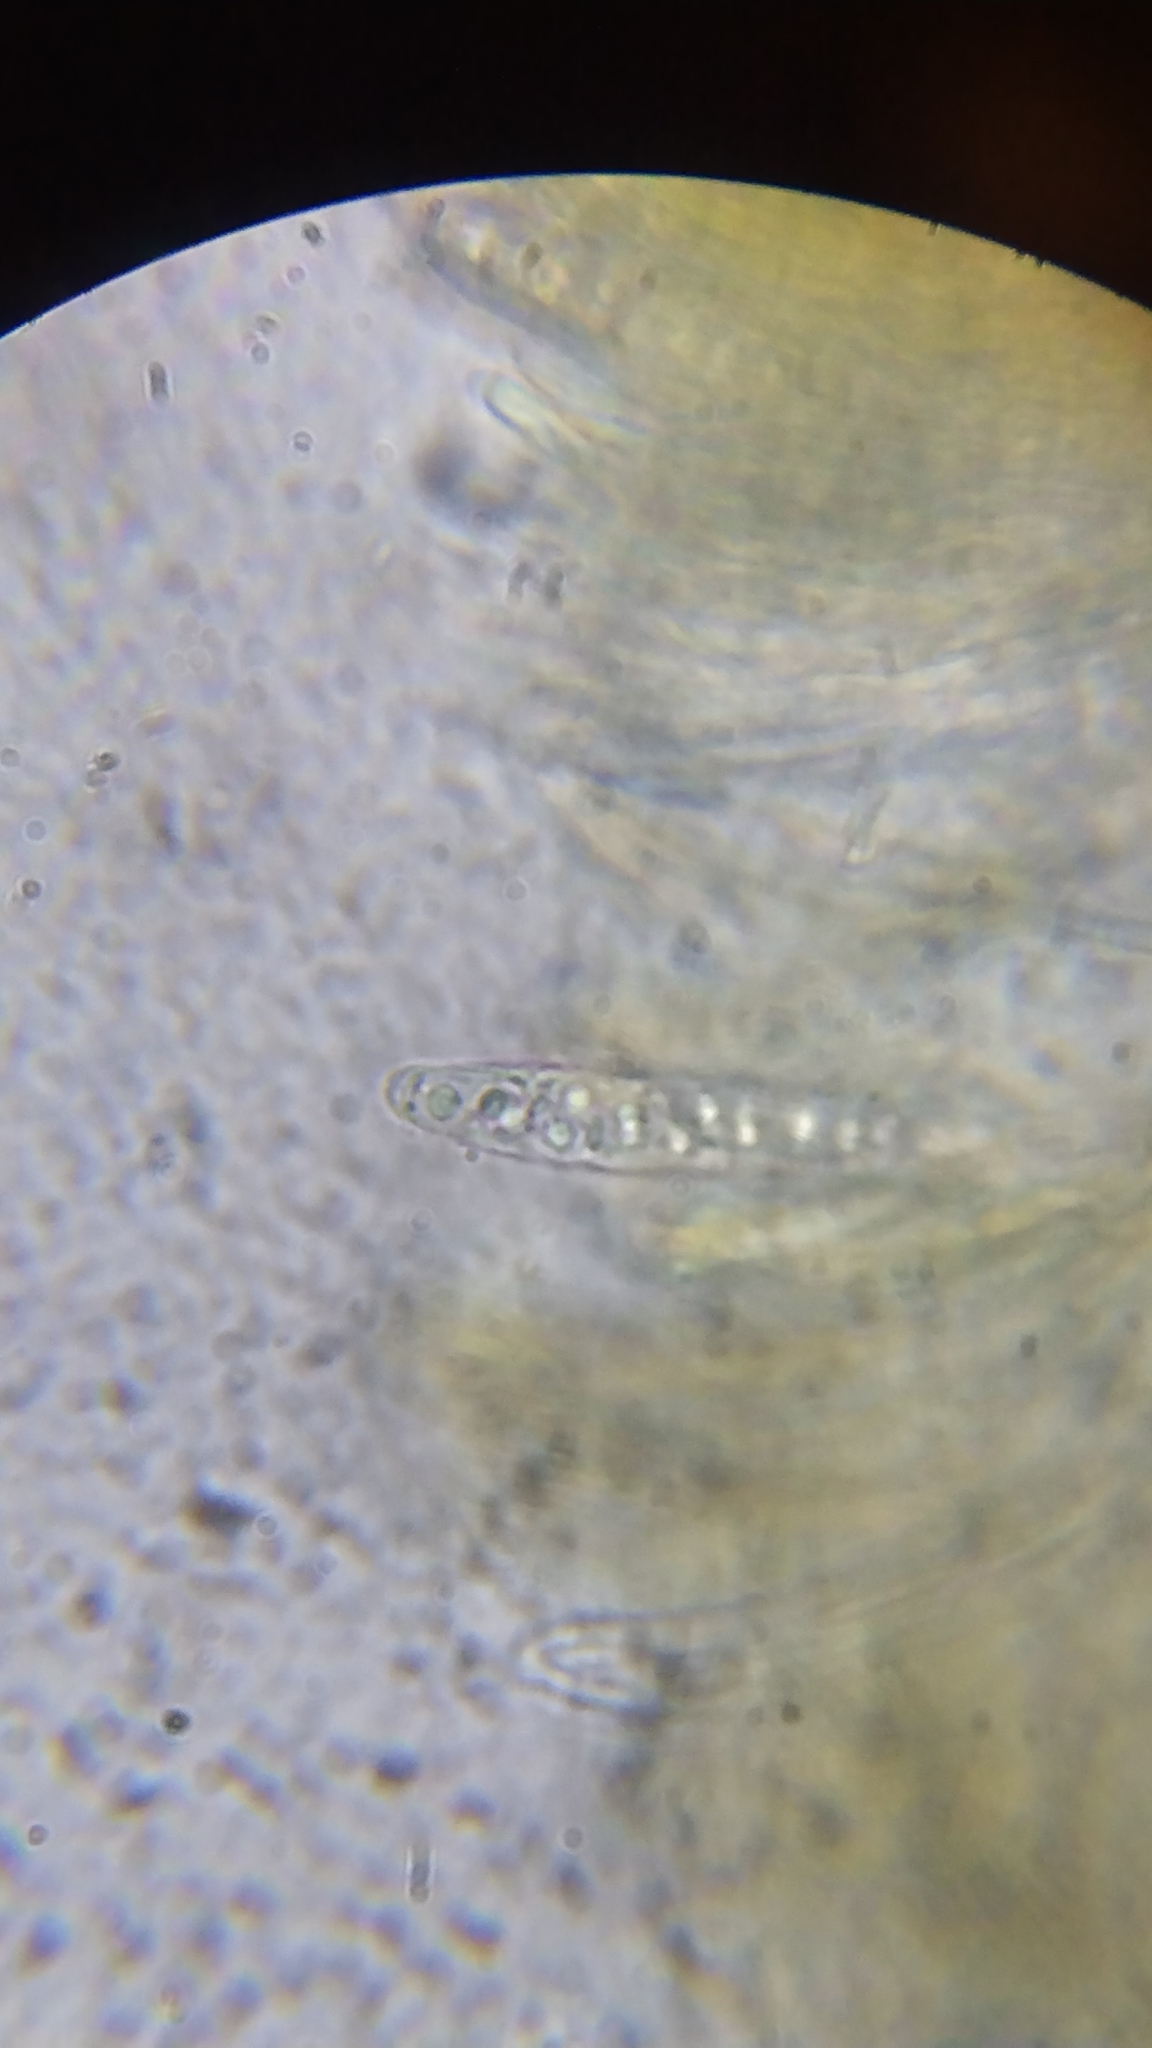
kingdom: Fungi
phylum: Ascomycota
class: Leotiomycetes
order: Helotiales
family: Cenangiaceae
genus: Chlorencoelia
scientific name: Chlorencoelia torta
